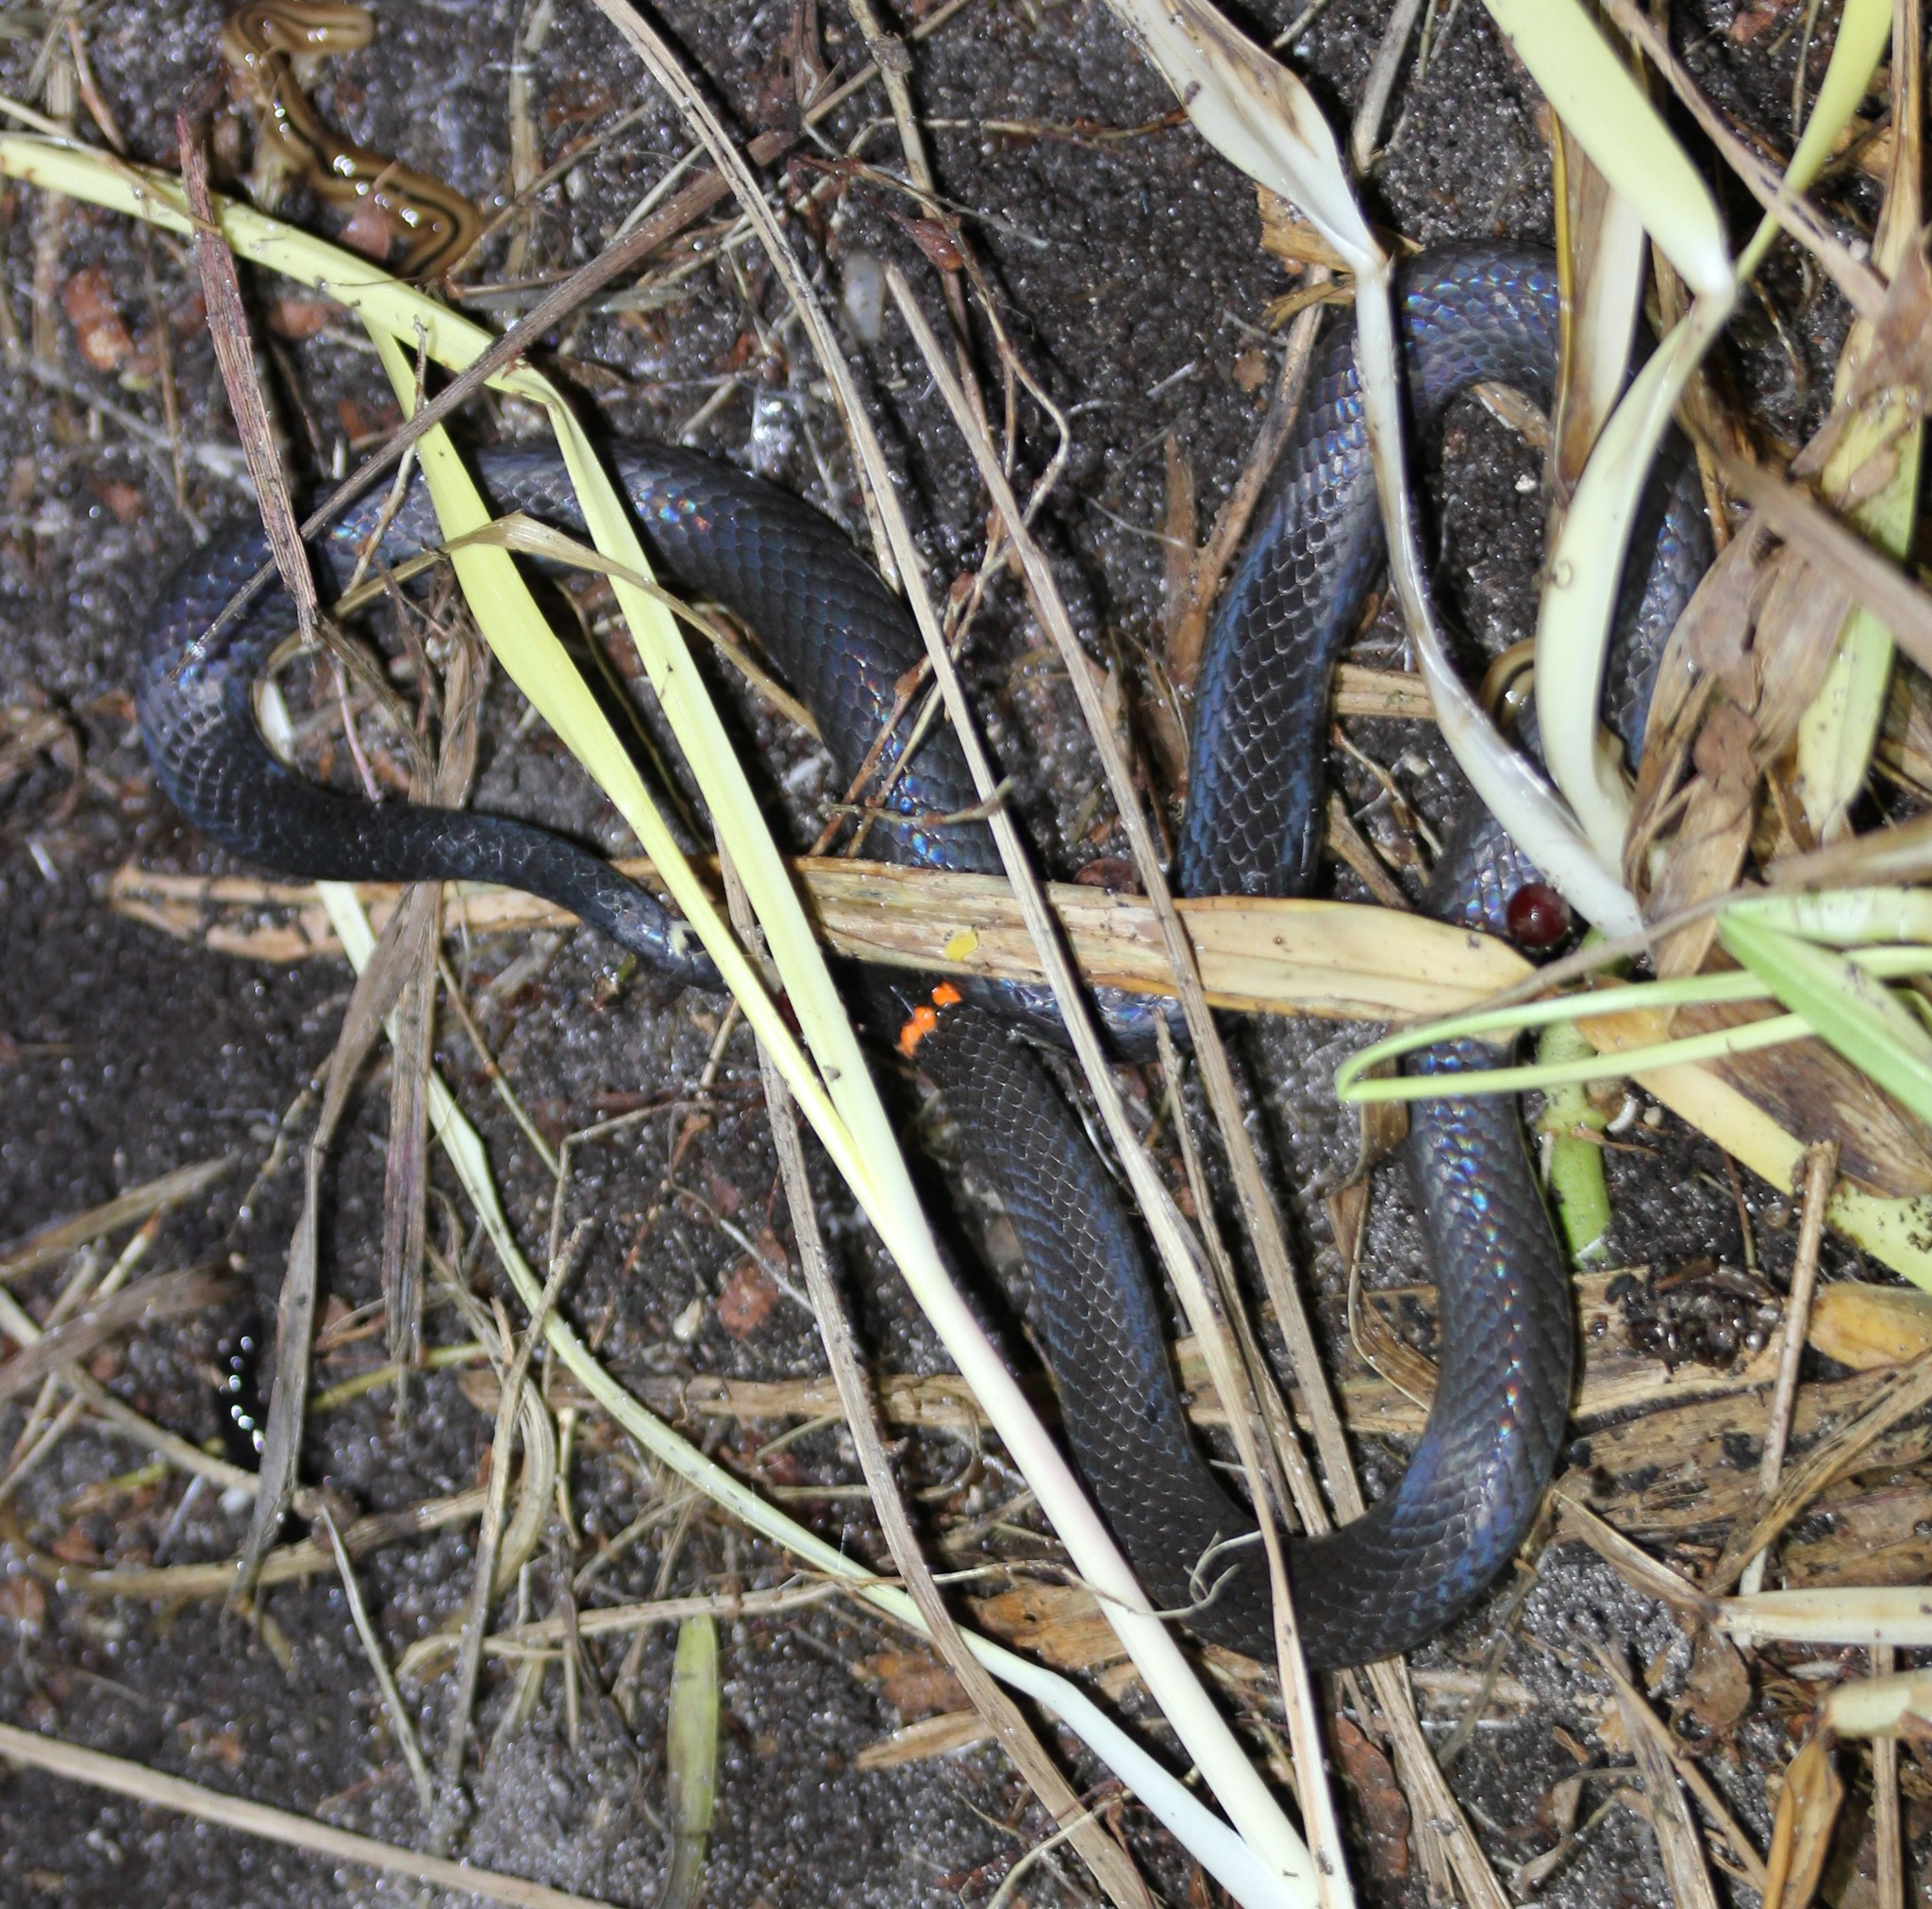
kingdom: Animalia
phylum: Chordata
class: Squamata
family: Colubridae
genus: Diadophis
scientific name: Diadophis punctatus
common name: Ringneck snake
